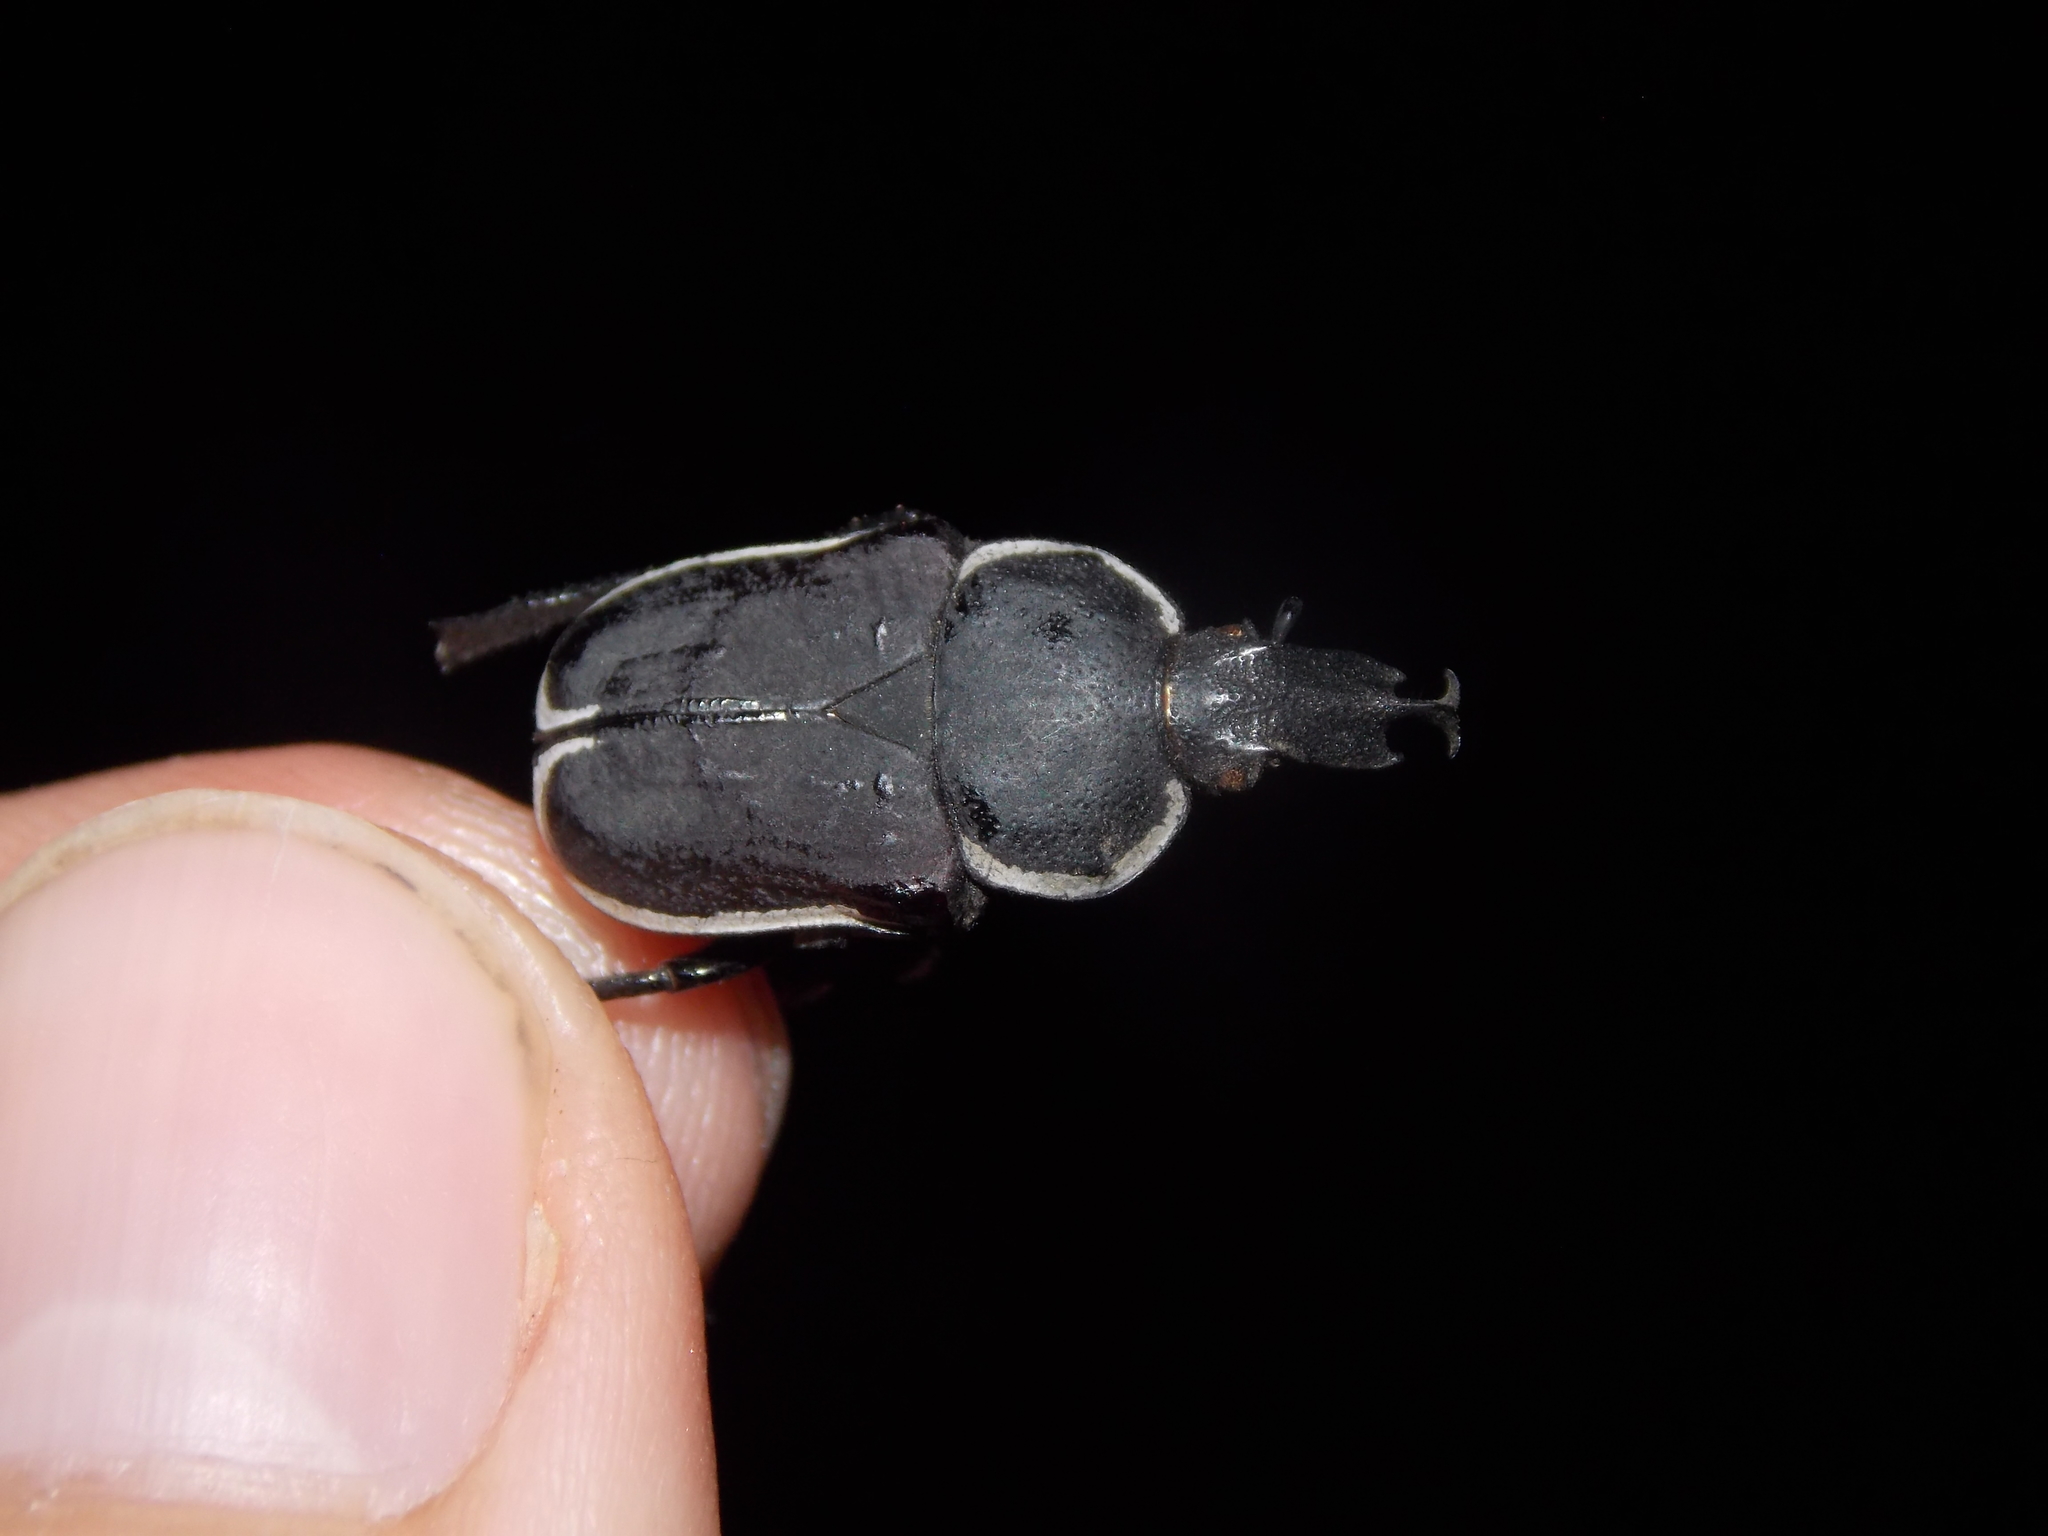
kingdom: Animalia
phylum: Arthropoda
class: Insecta
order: Coleoptera
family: Scarabaeidae
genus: Ichnestoma
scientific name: Ichnestoma rostrata
